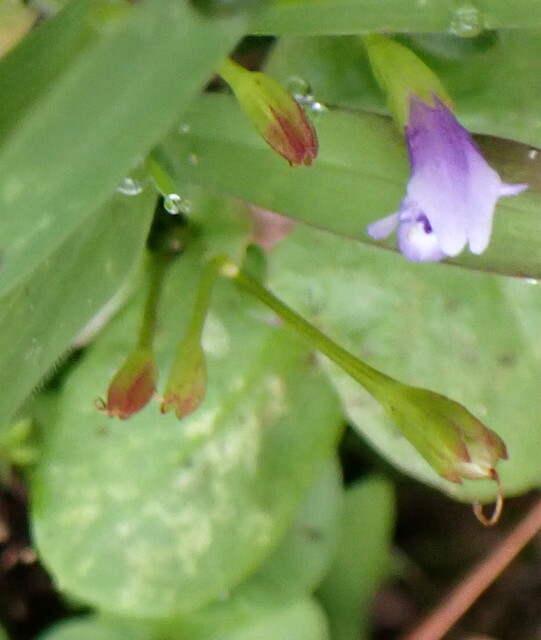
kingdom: Plantae
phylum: Tracheophyta
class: Magnoliopsida
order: Lamiales
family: Linderniaceae
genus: Torenia
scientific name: Torenia crustacea
